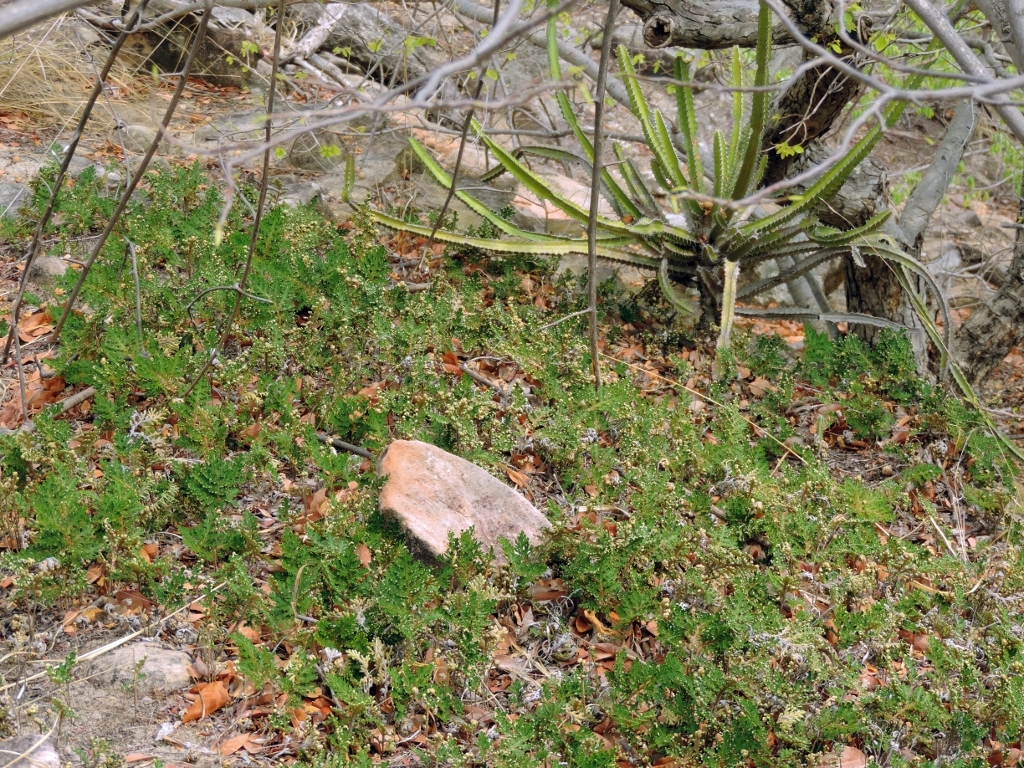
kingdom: Plantae
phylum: Tracheophyta
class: Lycopodiopsida
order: Selaginellales
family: Selaginellaceae
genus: Selaginella
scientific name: Selaginella bryopteris
